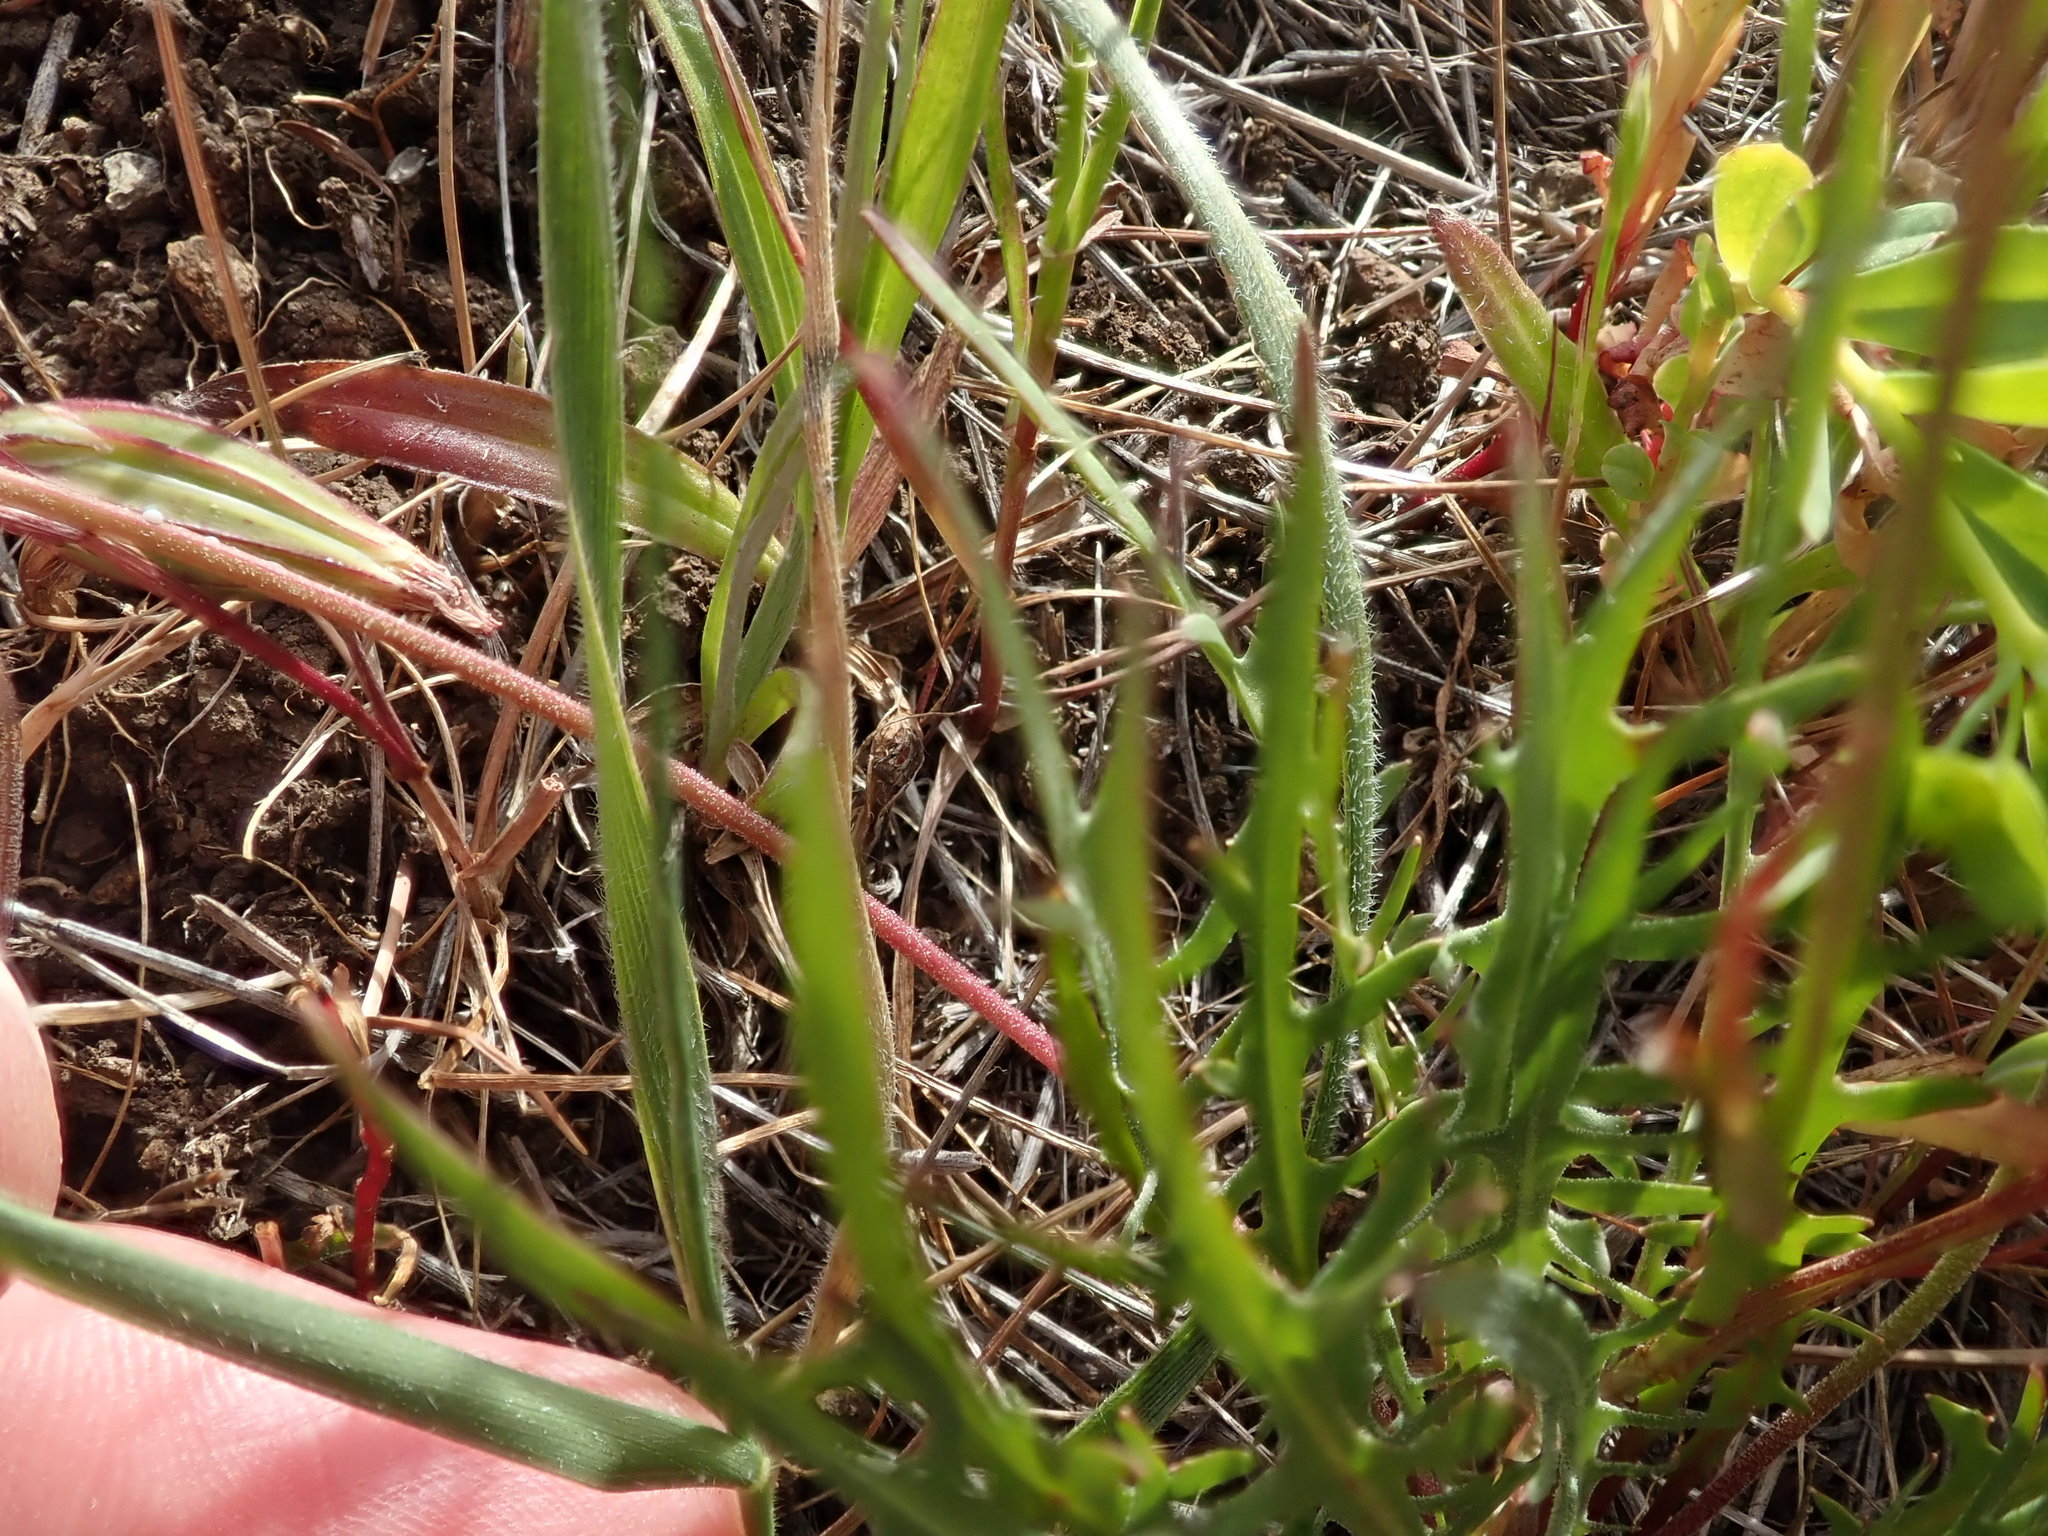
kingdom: Plantae
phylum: Tracheophyta
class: Magnoliopsida
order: Asterales
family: Asteraceae
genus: Microseris
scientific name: Microseris douglasii
